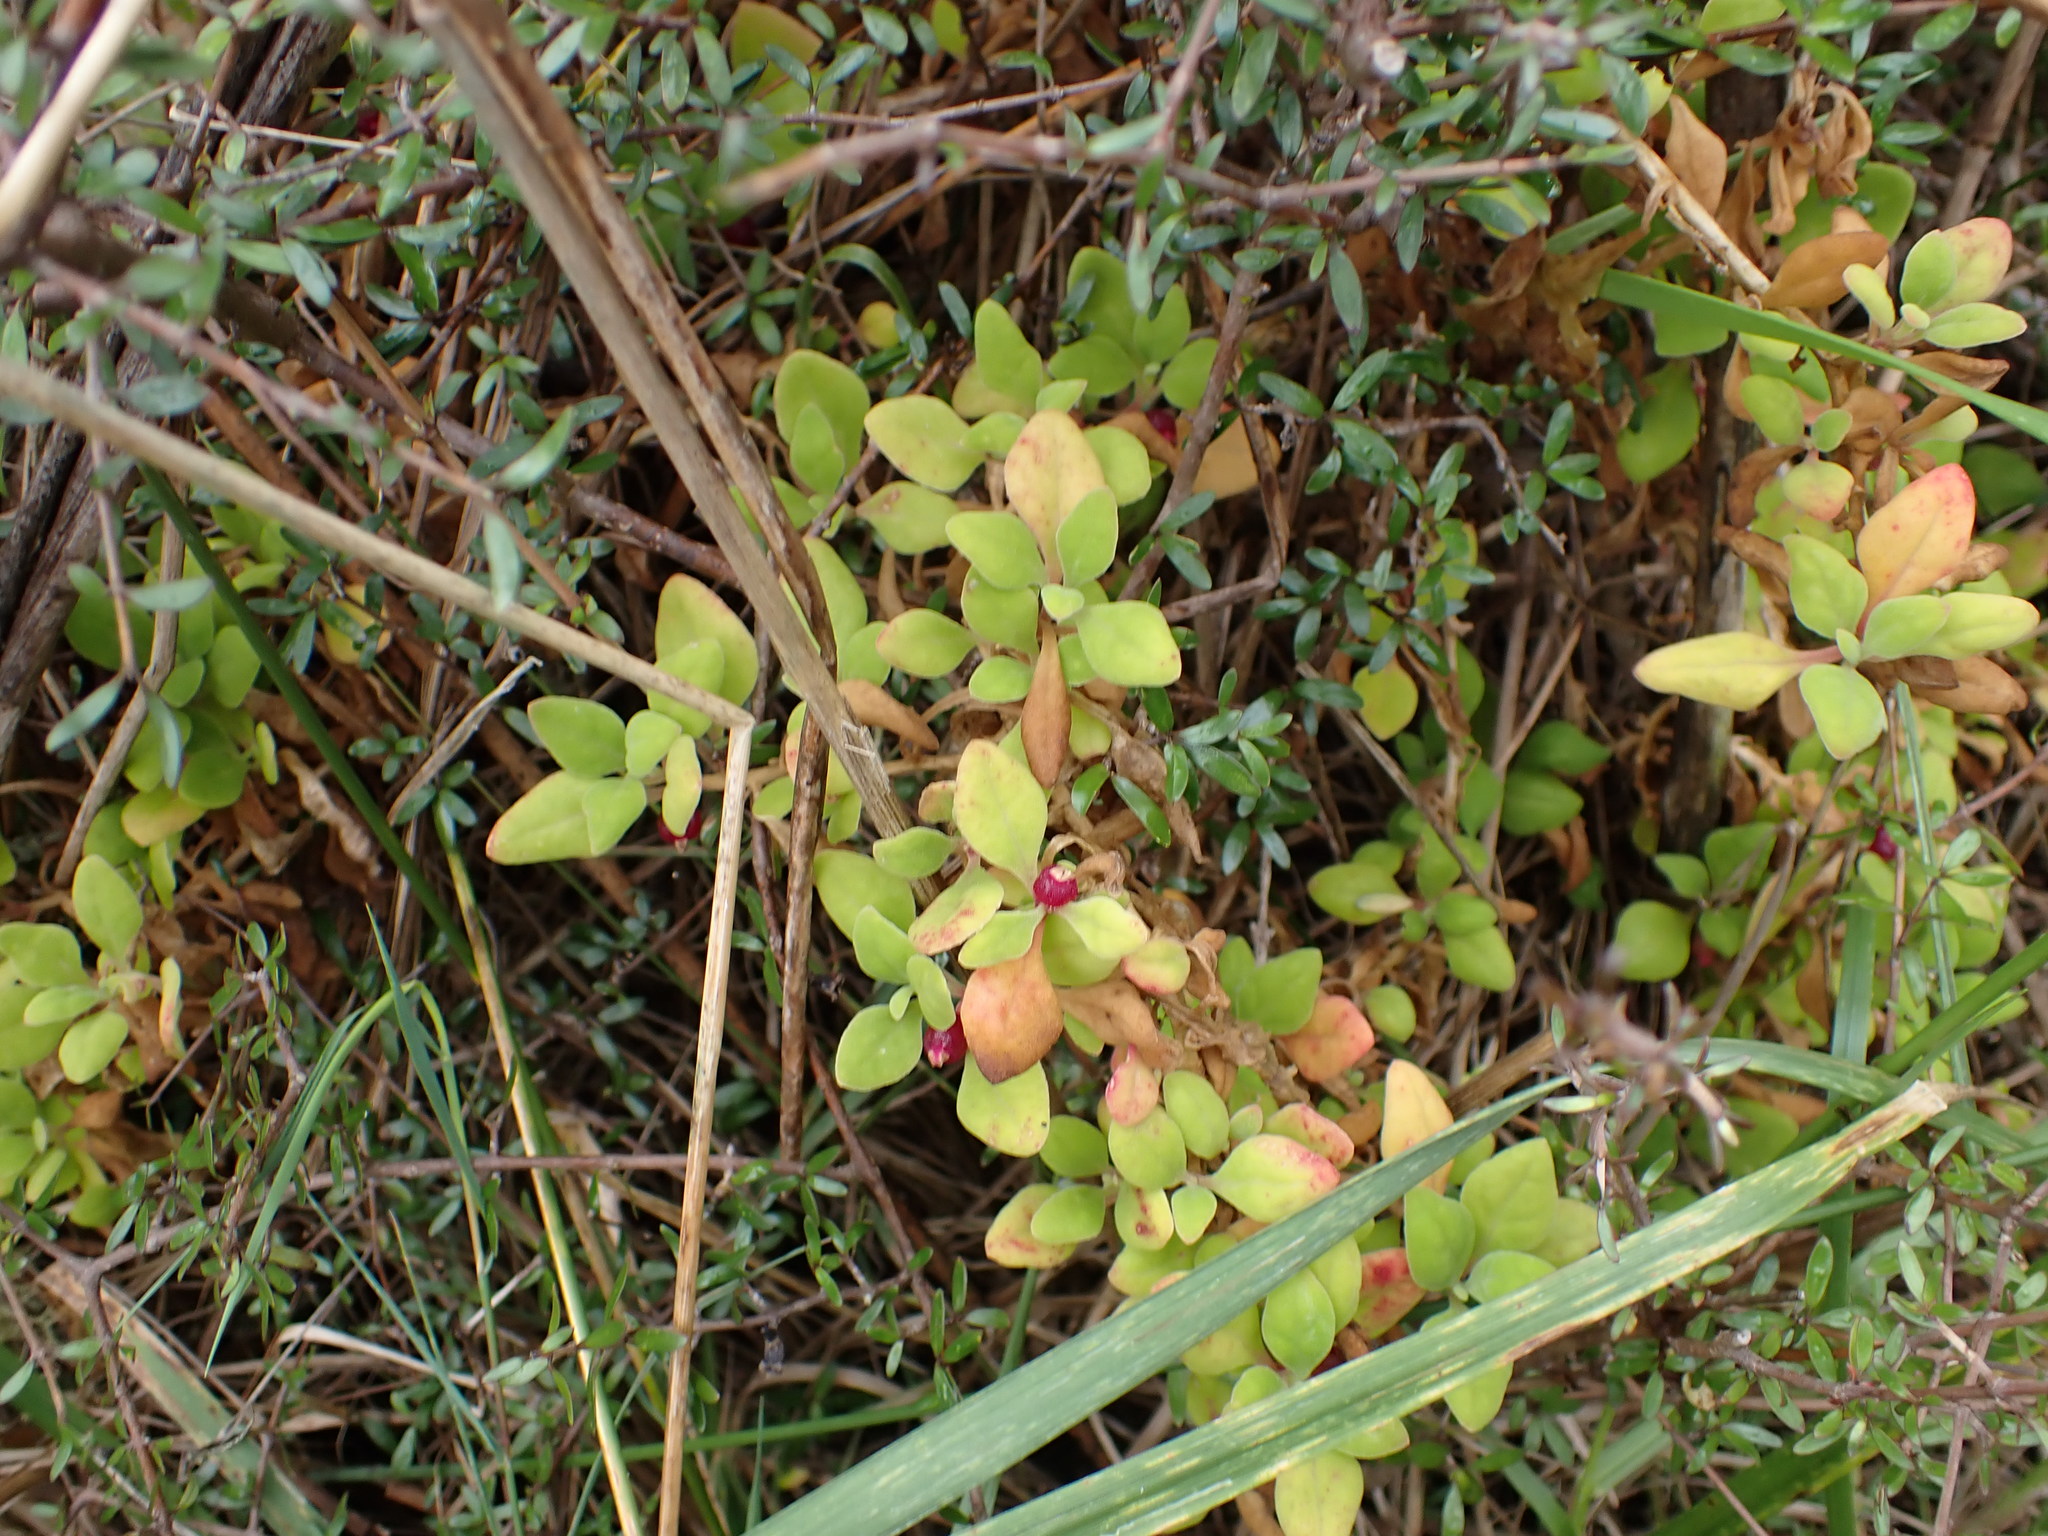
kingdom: Plantae
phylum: Tracheophyta
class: Magnoliopsida
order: Caryophyllales
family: Aizoaceae
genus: Tetragonia
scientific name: Tetragonia implexicoma
